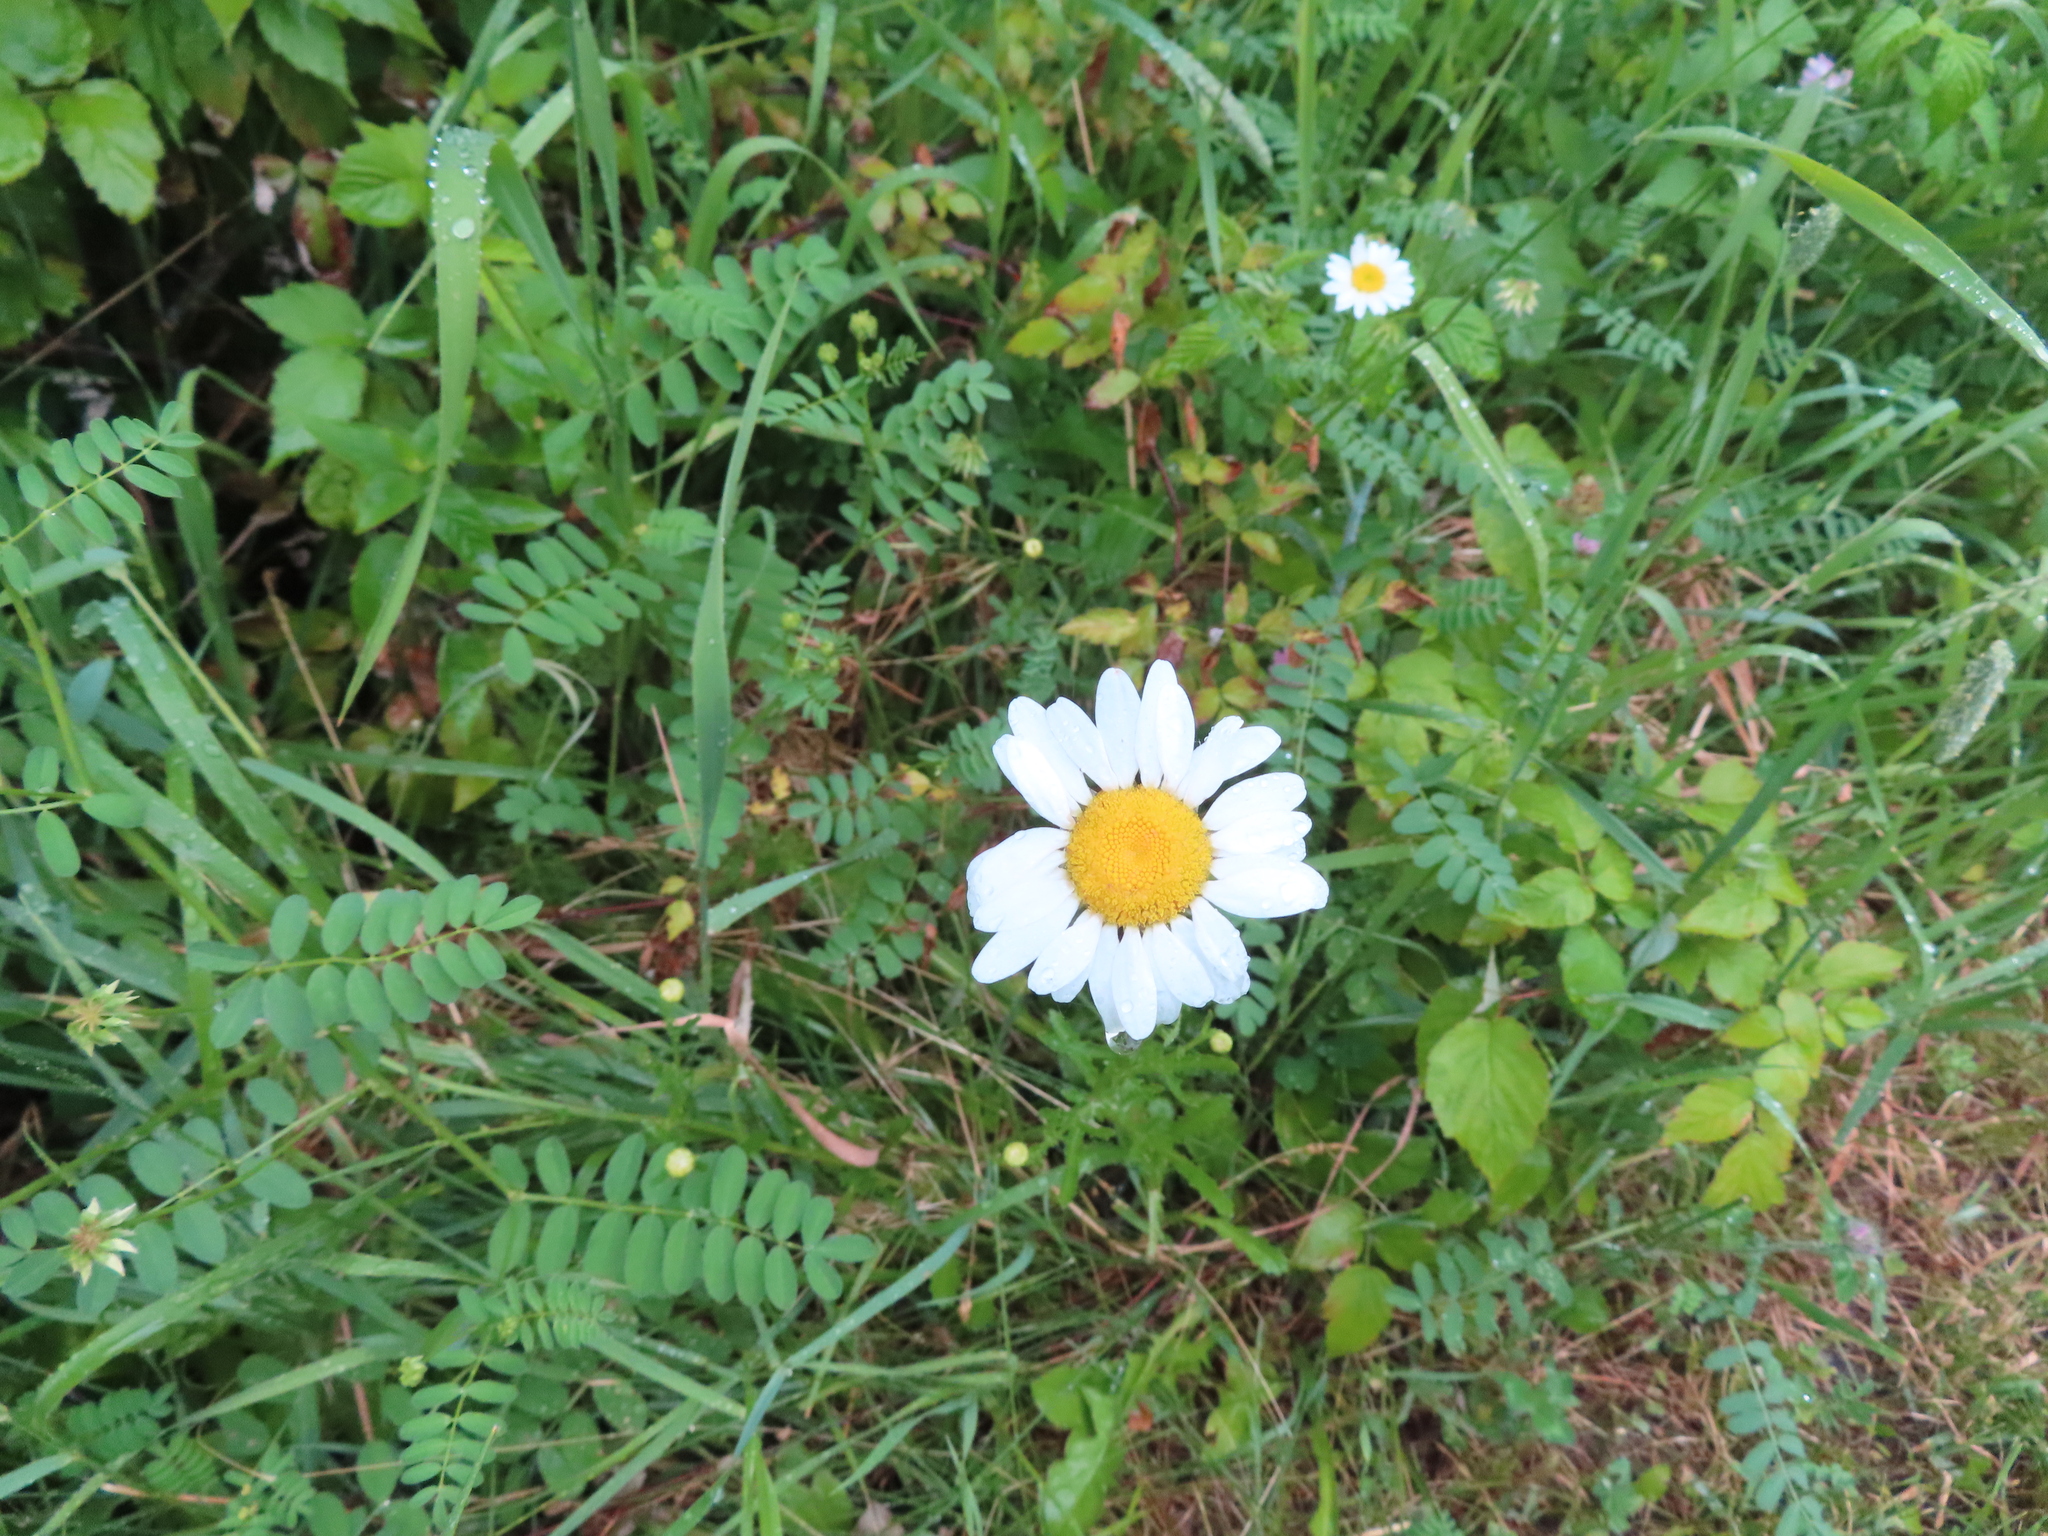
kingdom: Plantae
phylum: Tracheophyta
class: Magnoliopsida
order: Asterales
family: Asteraceae
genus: Leucanthemum
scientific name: Leucanthemum vulgare
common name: Oxeye daisy
